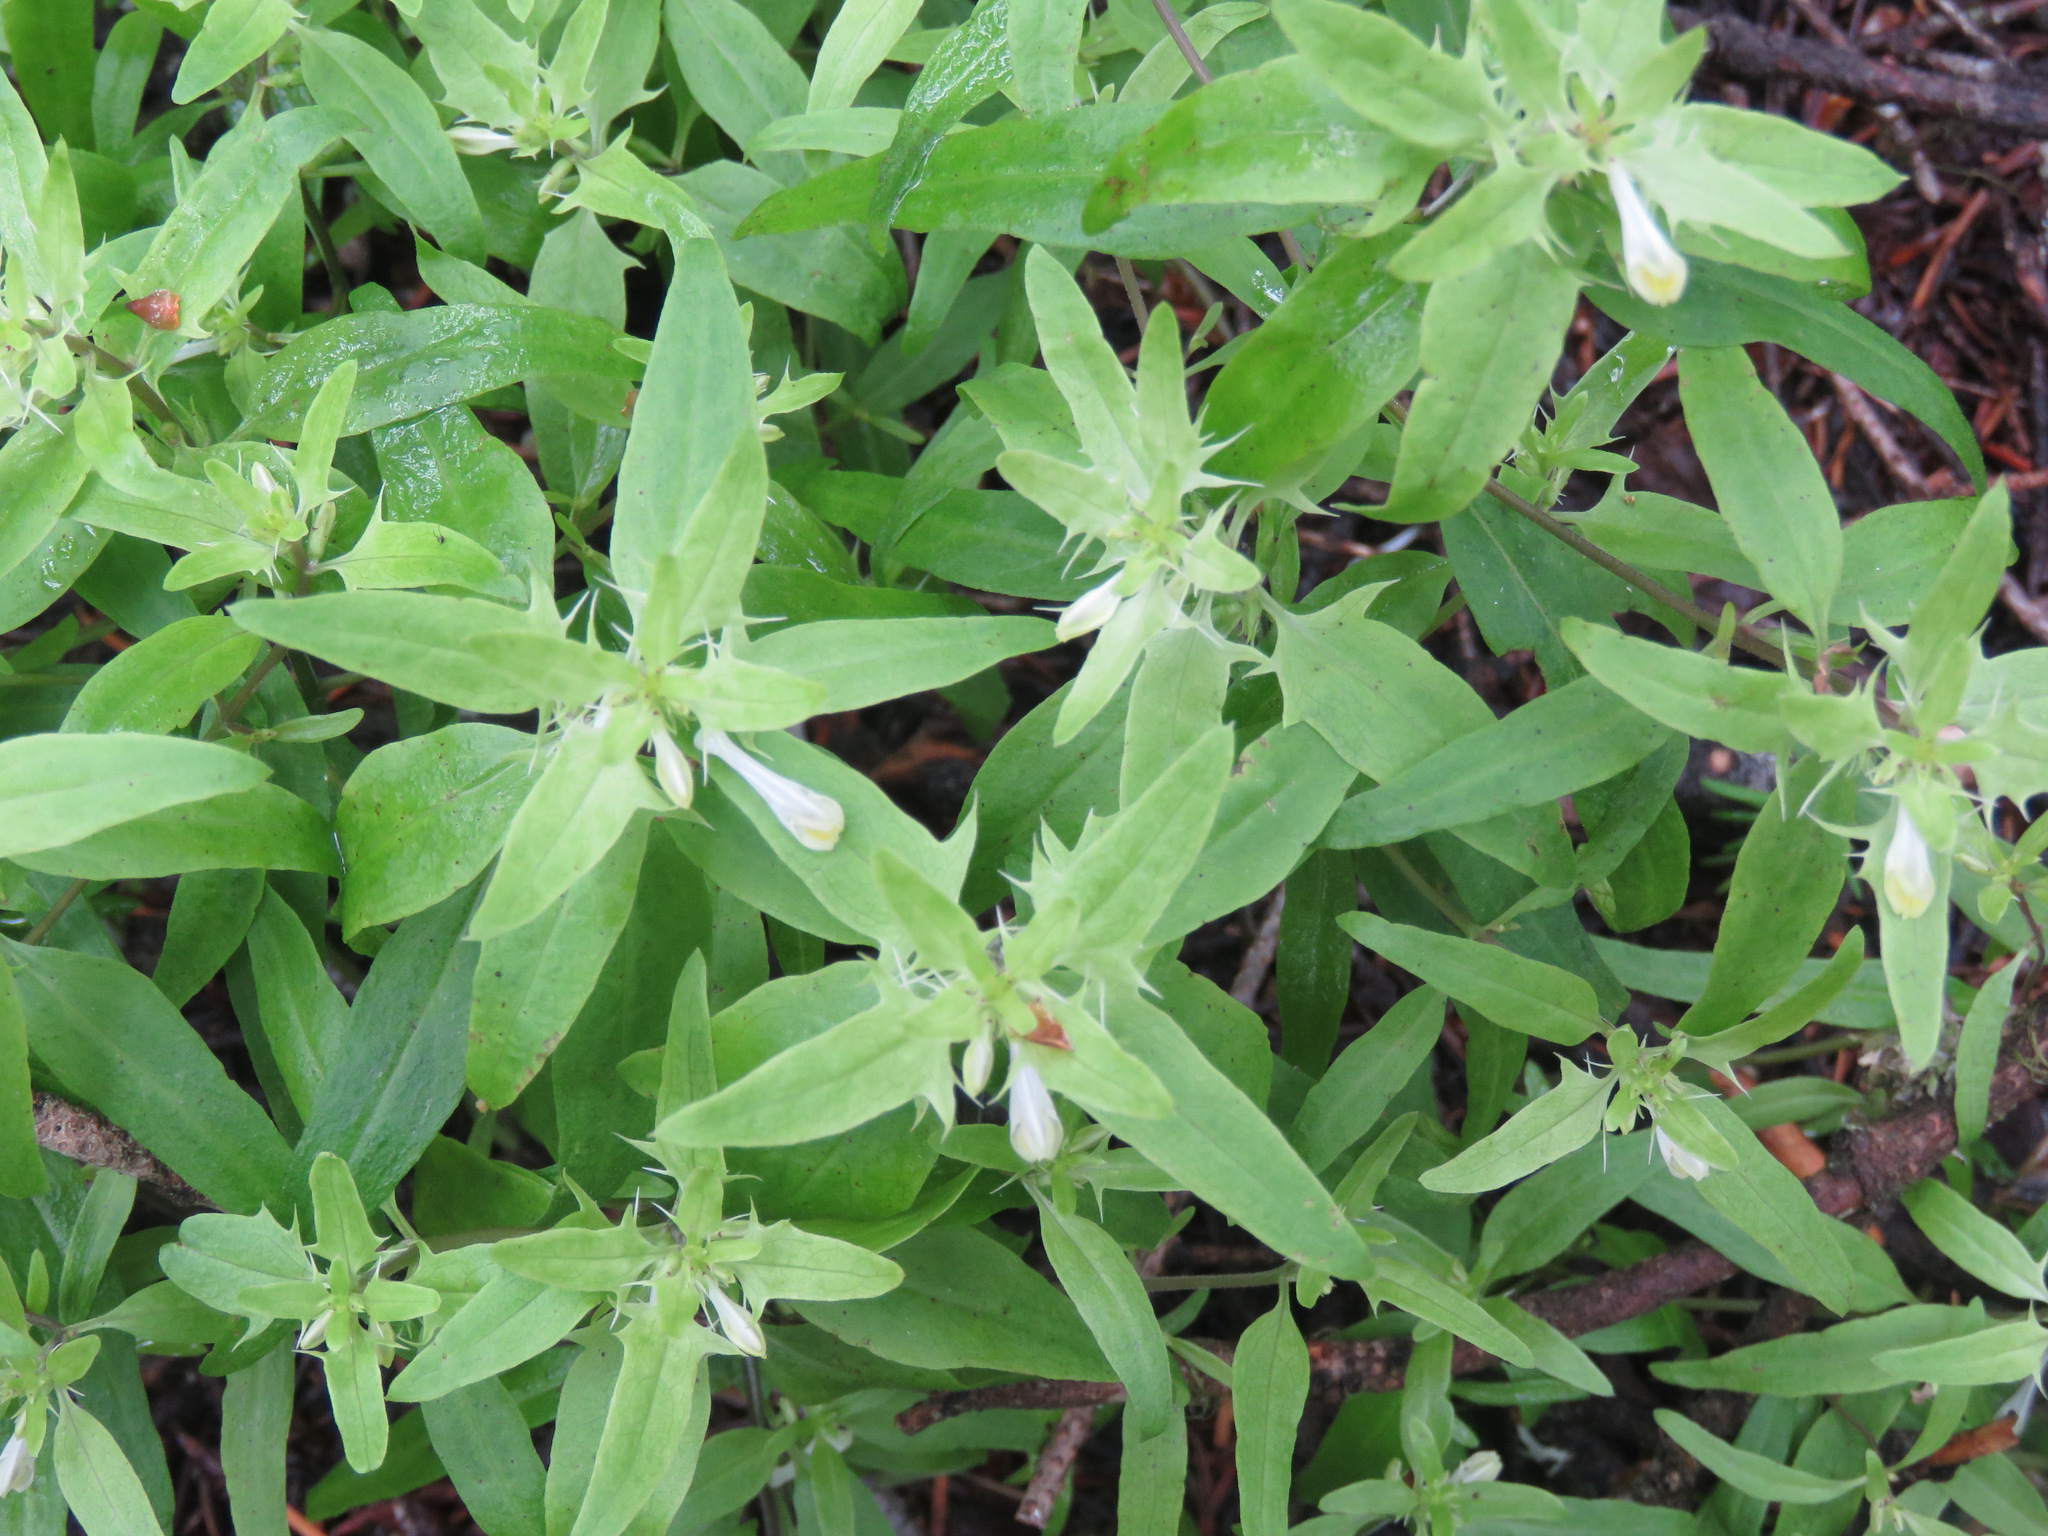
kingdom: Plantae
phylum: Tracheophyta
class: Magnoliopsida
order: Lamiales
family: Orobanchaceae
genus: Melampyrum
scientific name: Melampyrum lineare
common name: American cow-wheat
